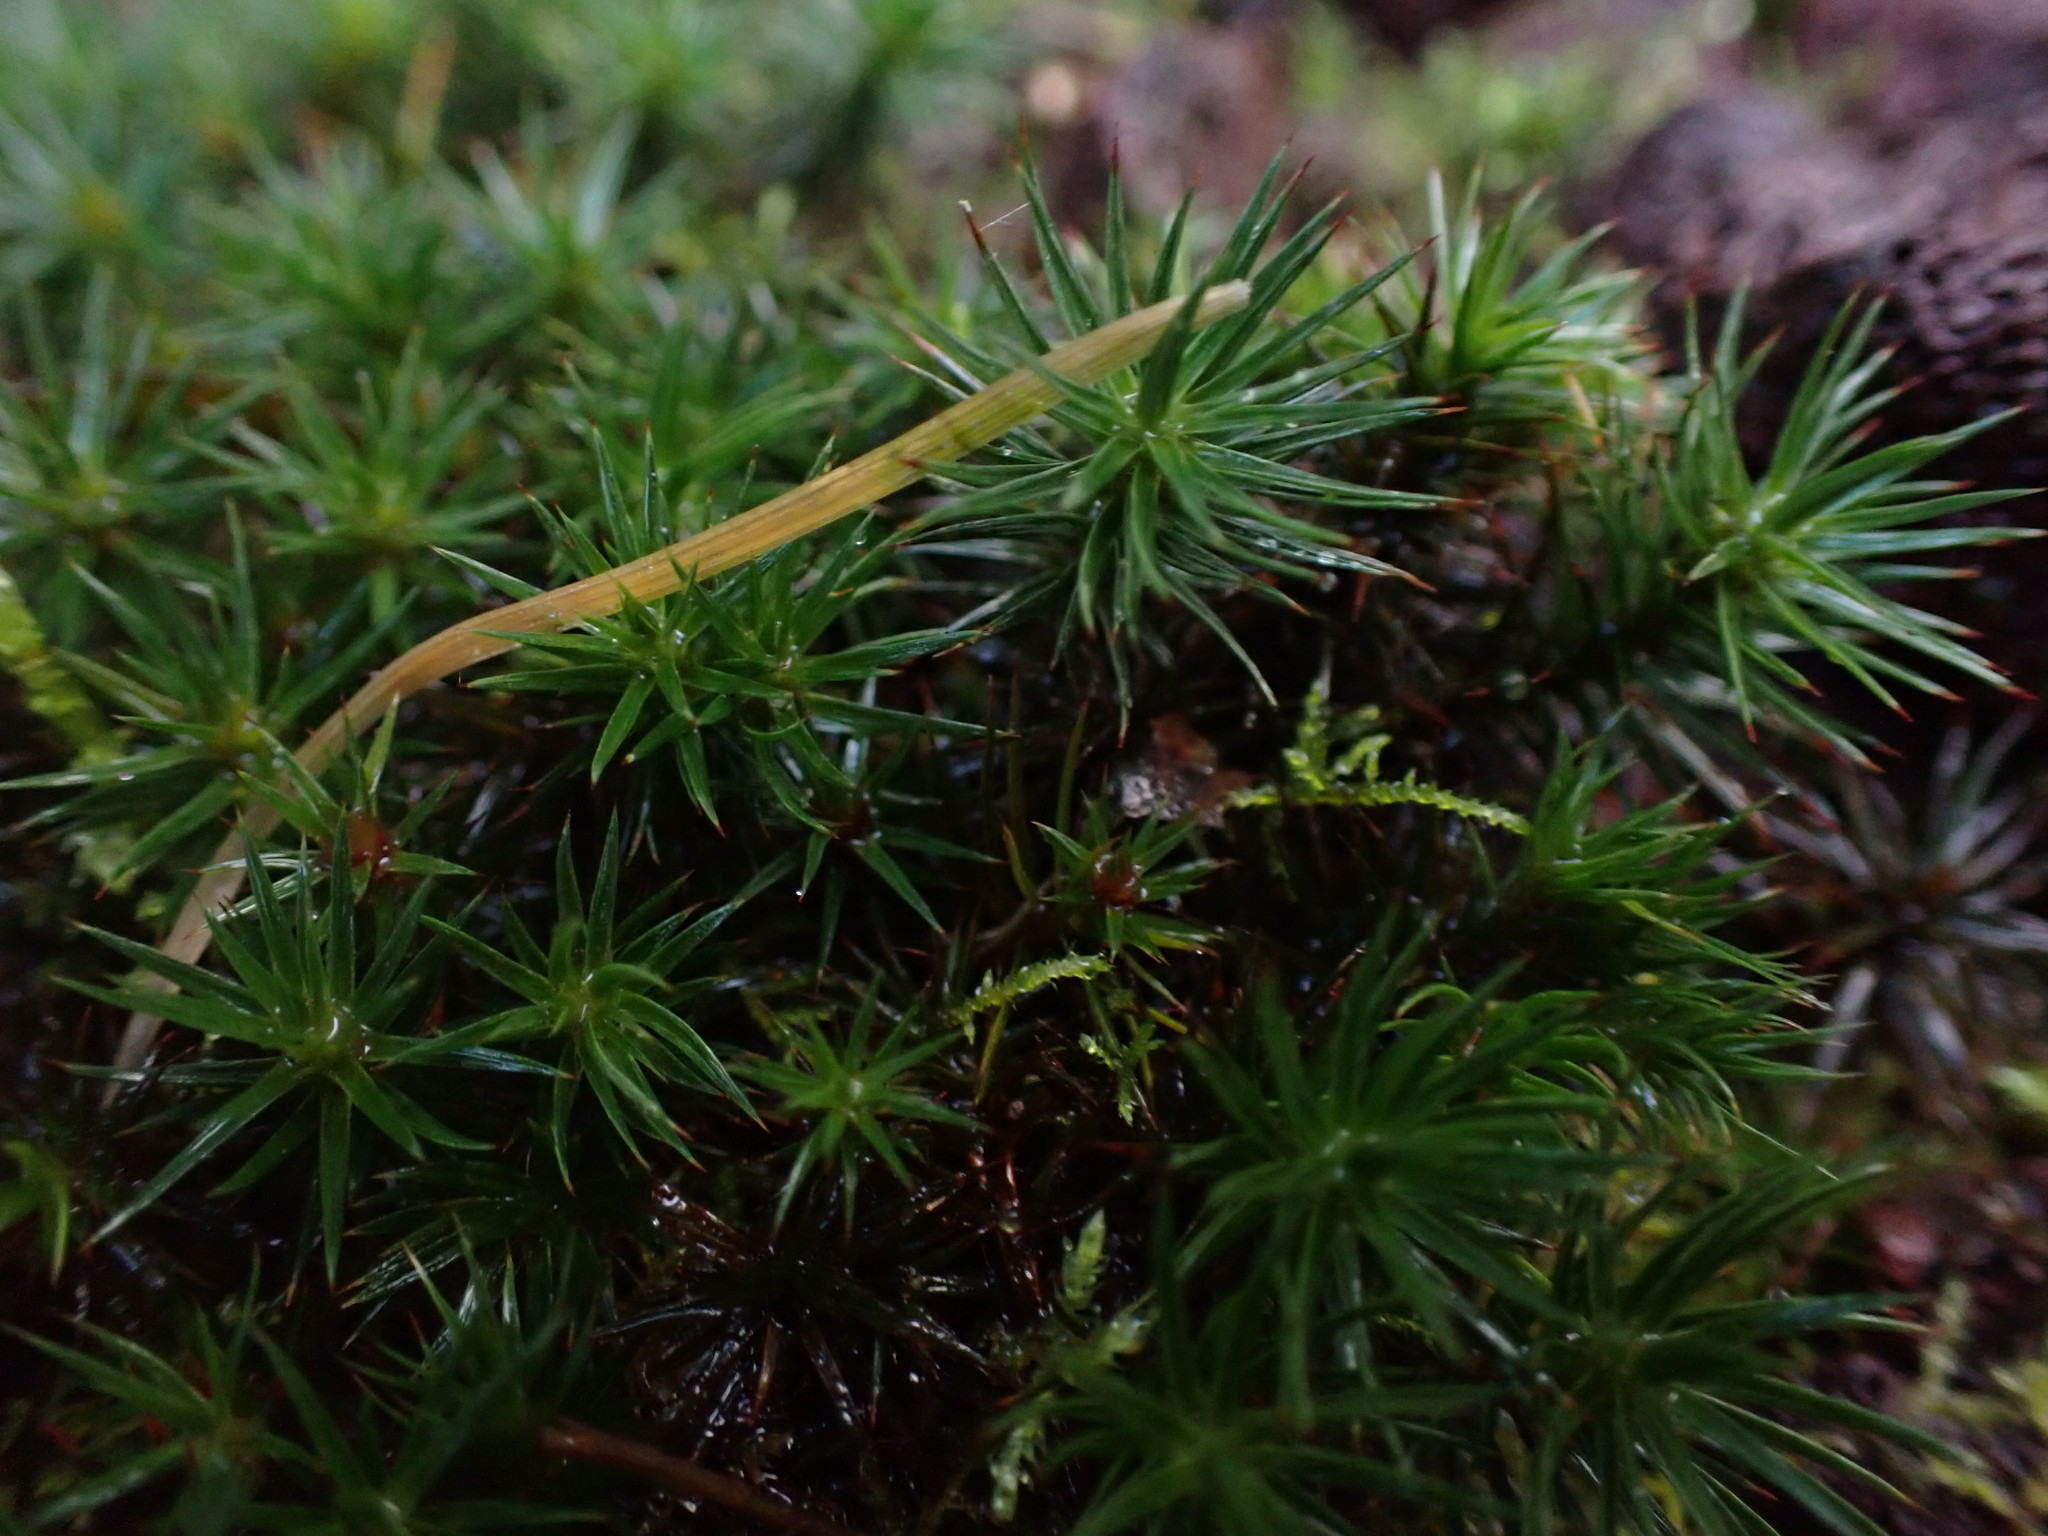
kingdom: Plantae
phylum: Bryophyta
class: Polytrichopsida
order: Polytrichales
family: Polytrichaceae
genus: Polytrichum
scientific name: Polytrichum juniperinum
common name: Juniper haircap moss
